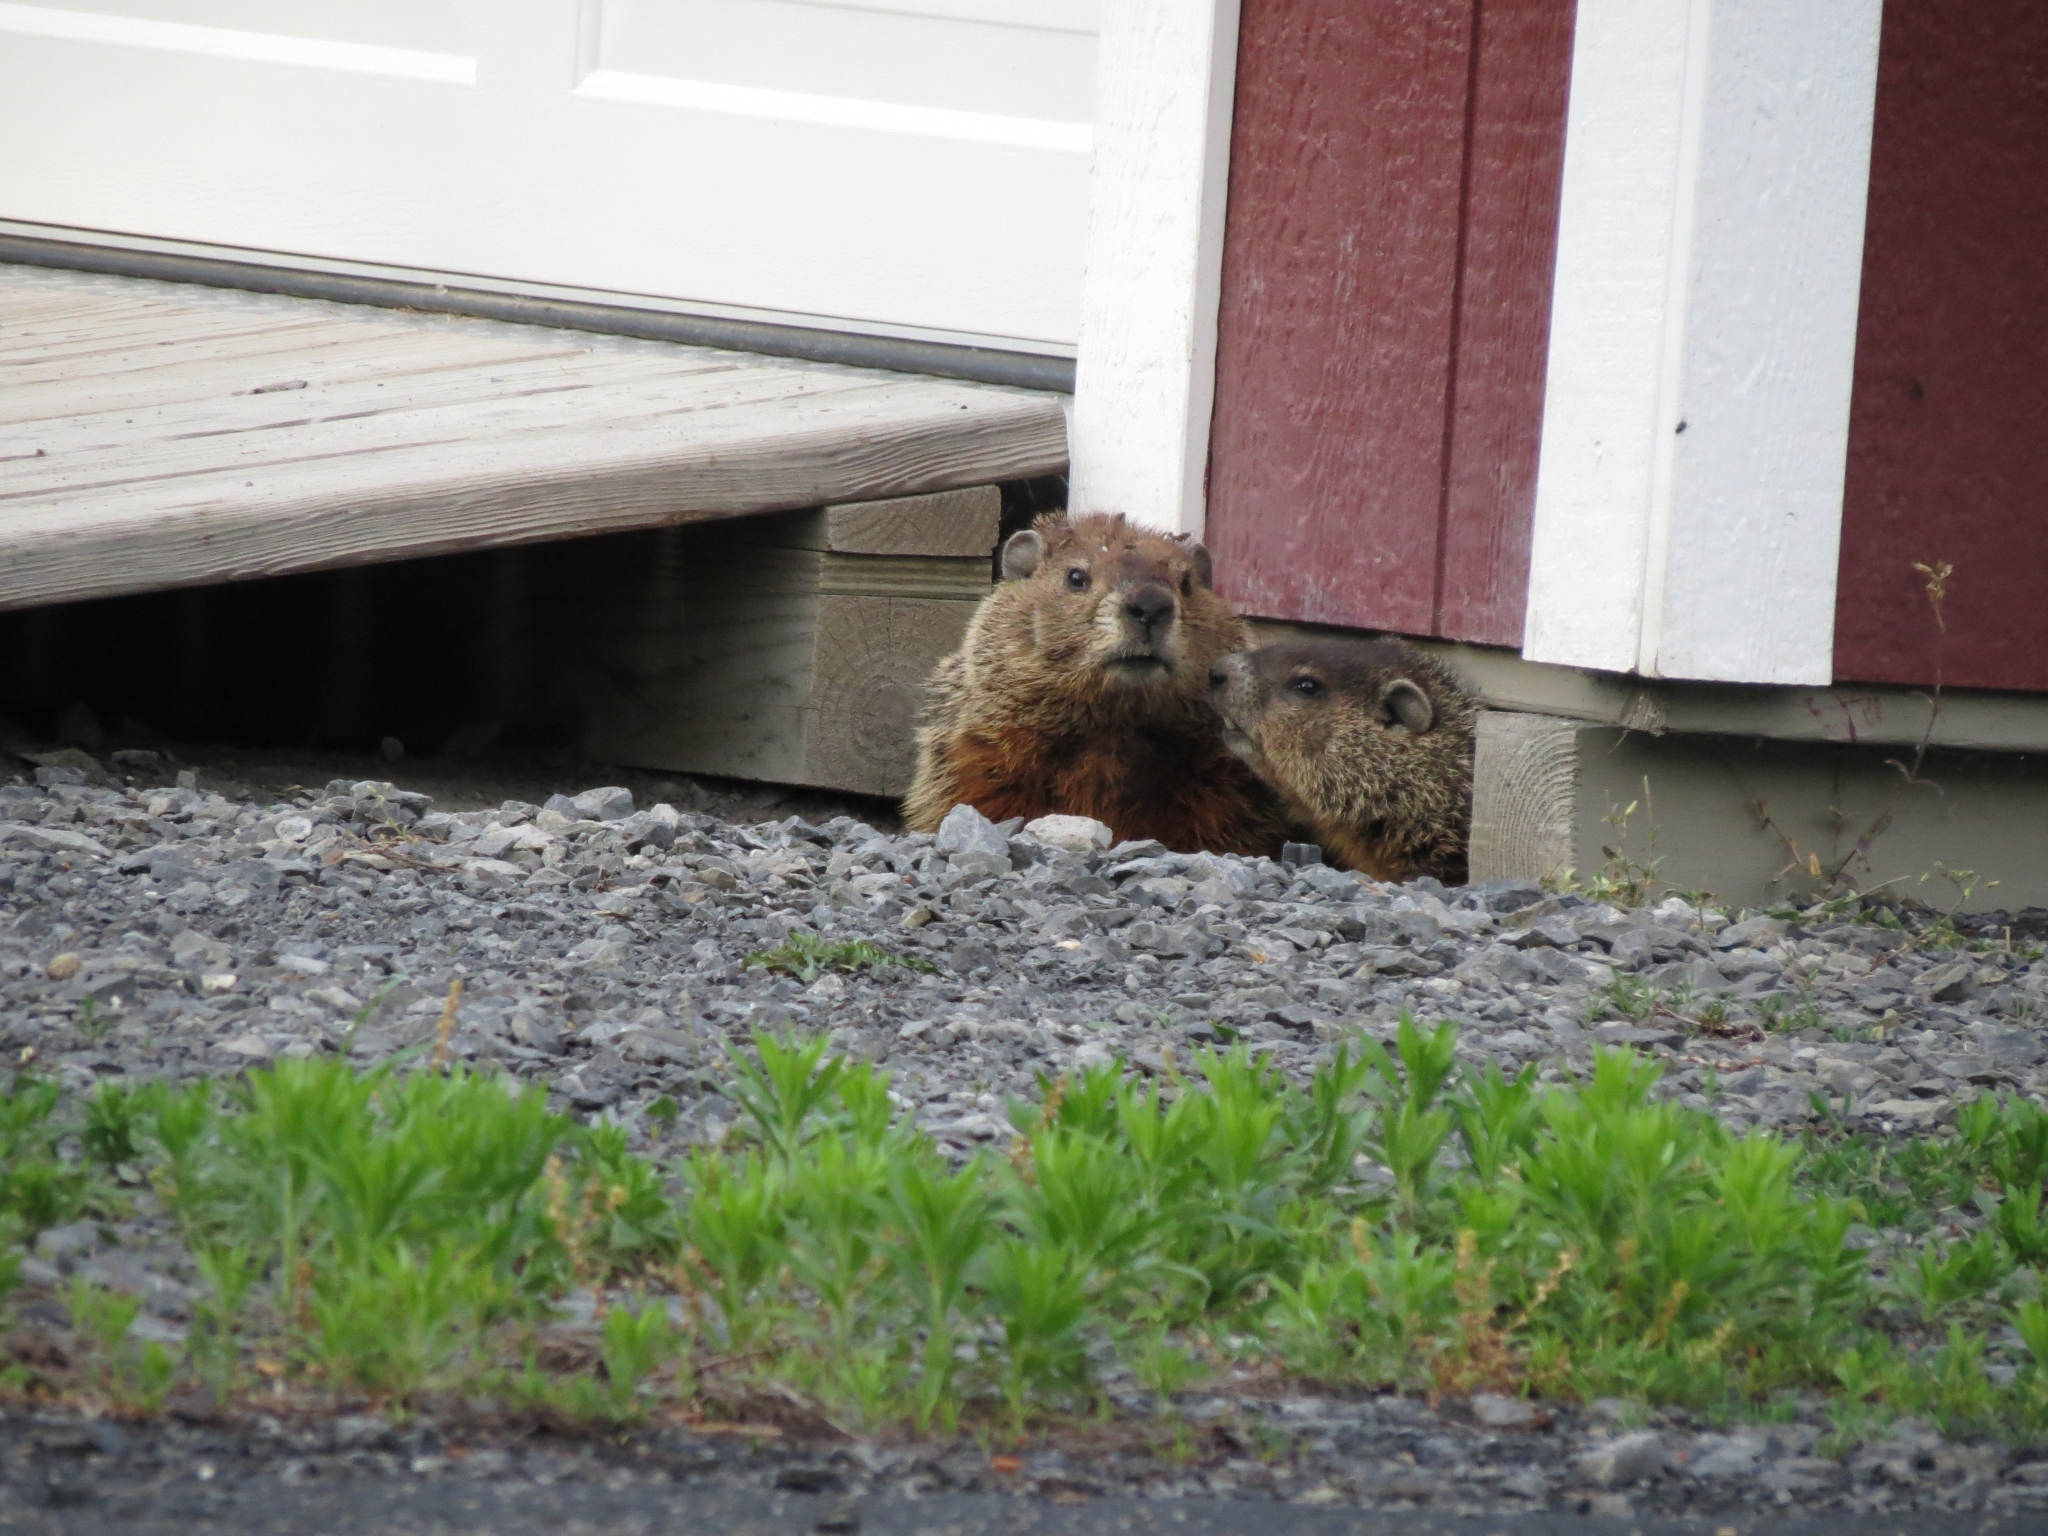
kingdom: Animalia
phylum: Chordata
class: Mammalia
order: Rodentia
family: Sciuridae
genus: Marmota
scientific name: Marmota monax
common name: Groundhog
